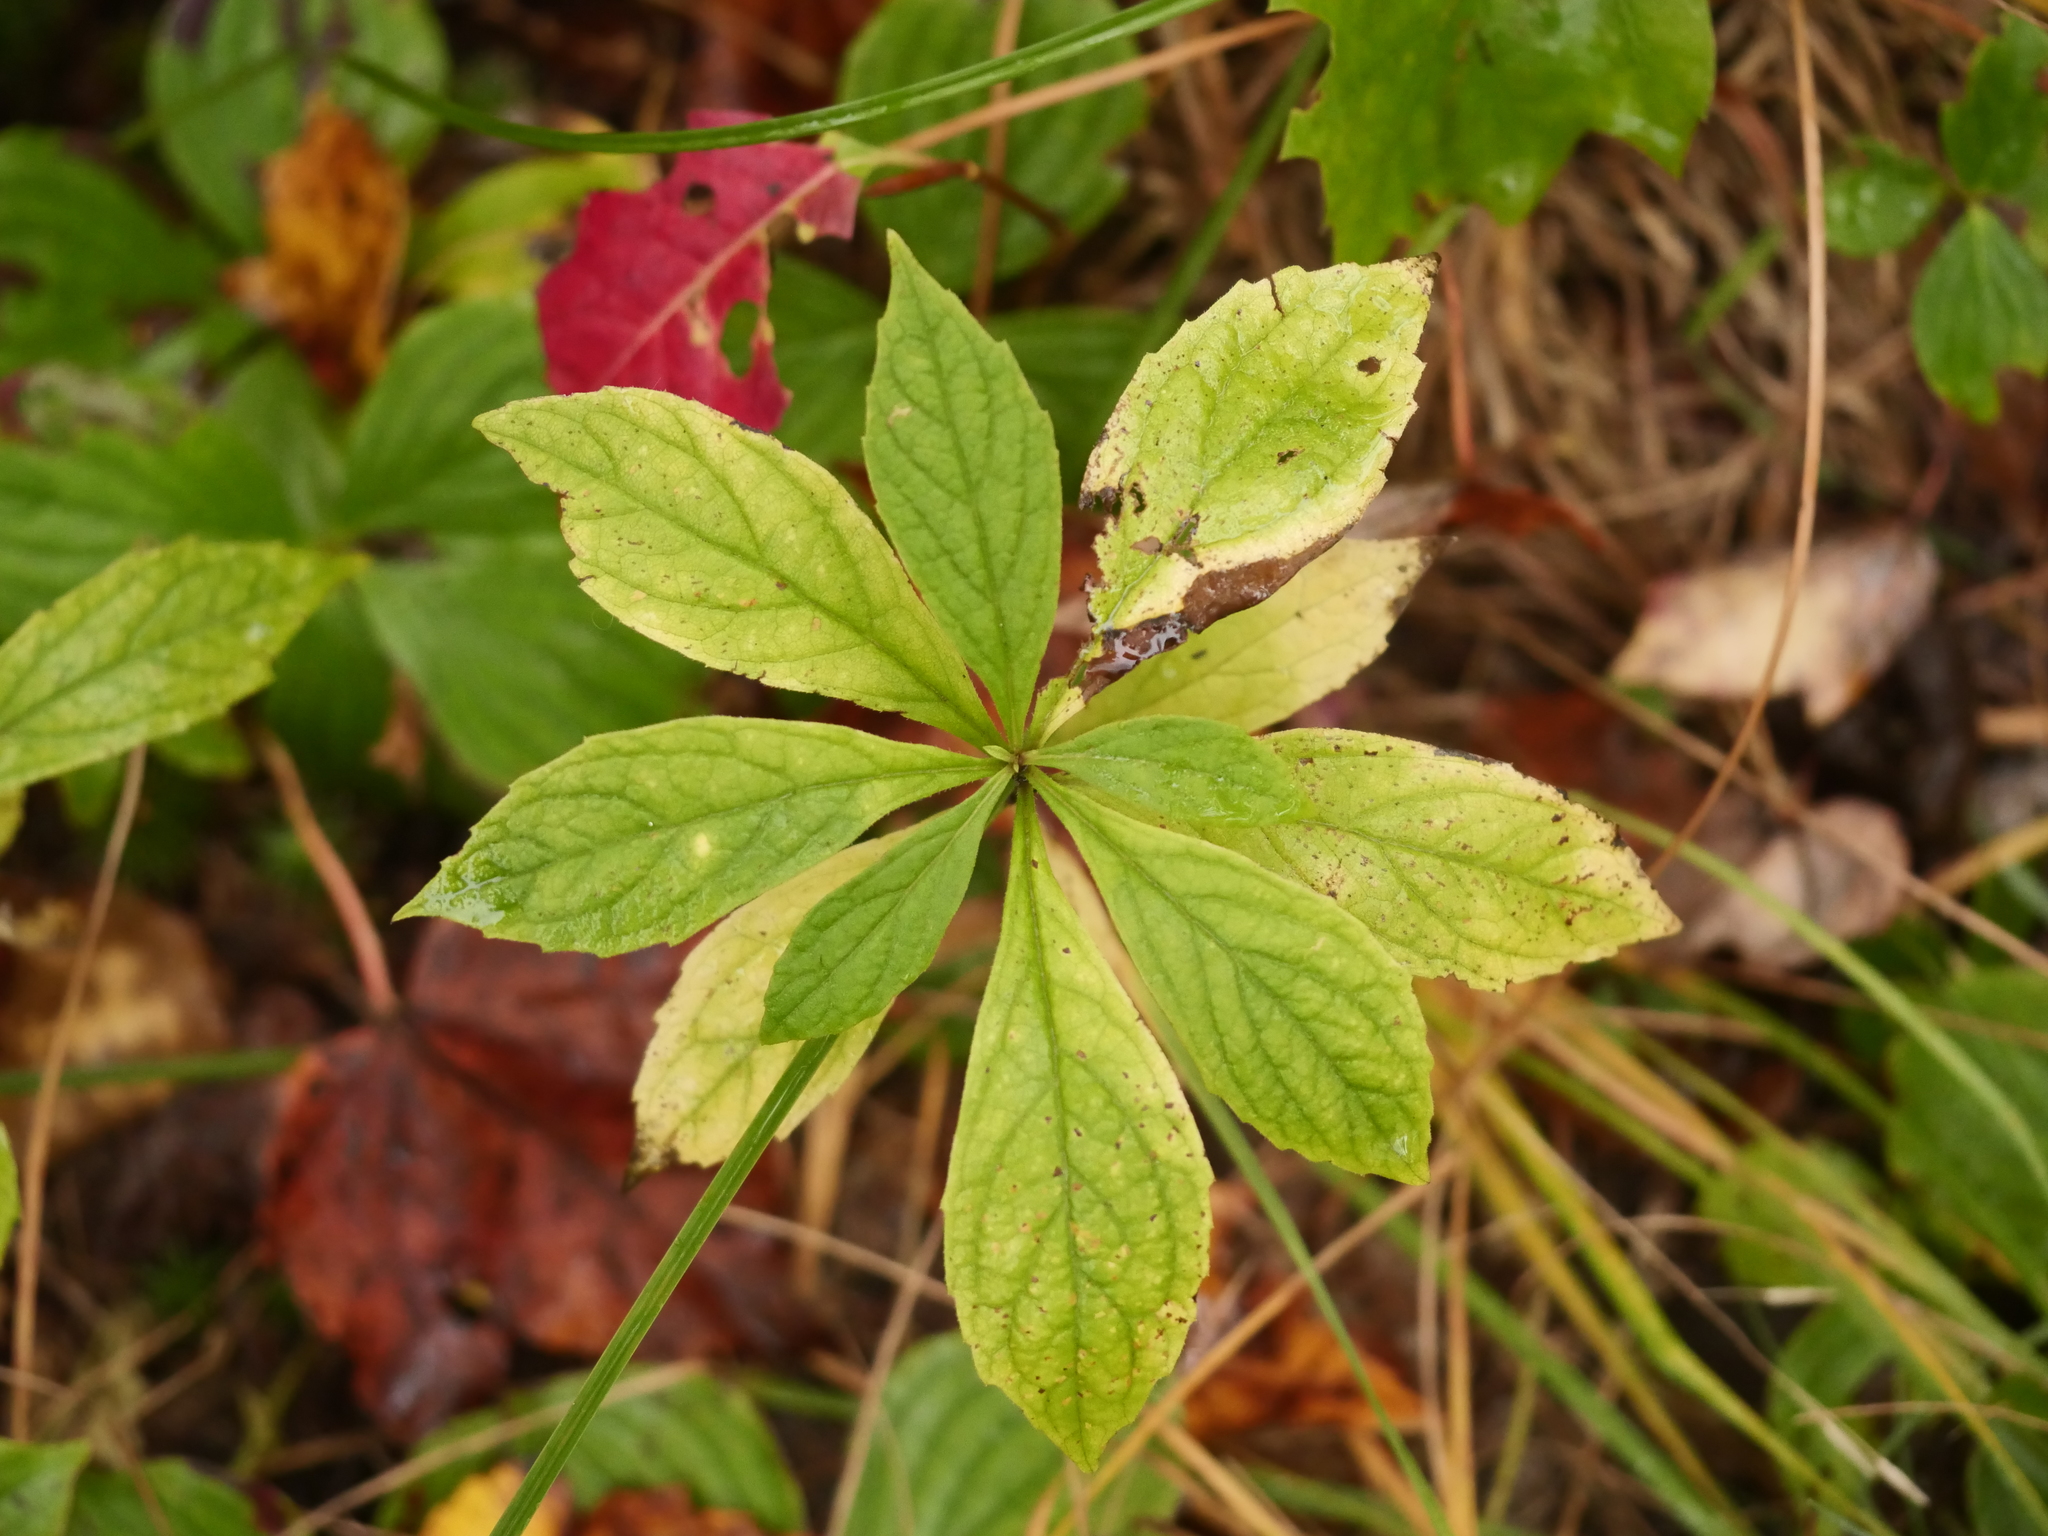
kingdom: Plantae
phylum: Tracheophyta
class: Magnoliopsida
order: Asterales
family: Asteraceae
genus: Oclemena
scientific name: Oclemena acuminata
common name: Mountain aster
